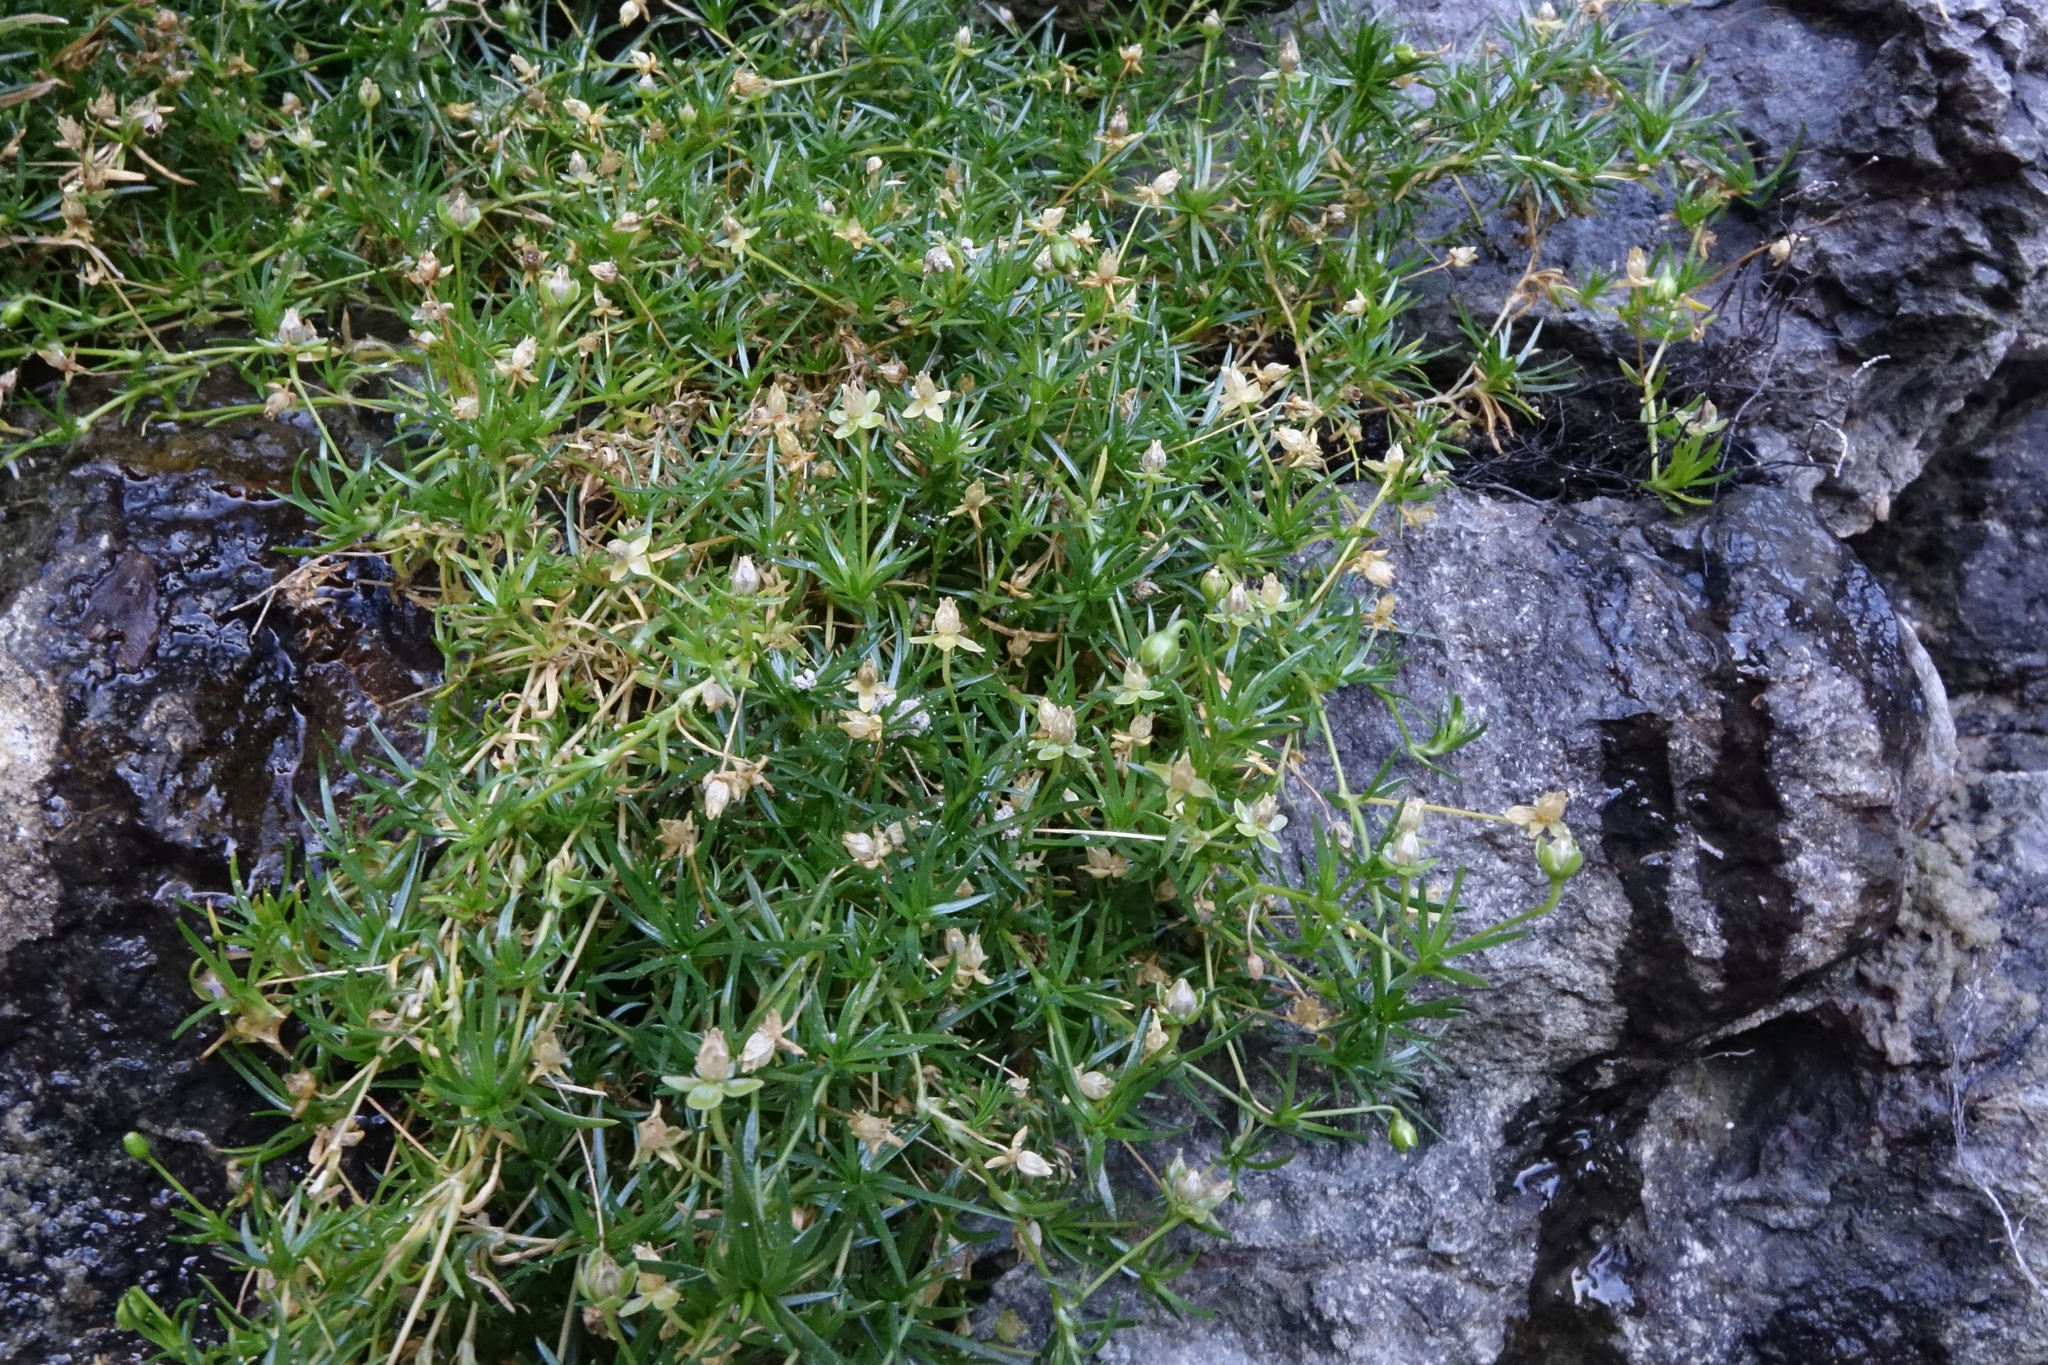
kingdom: Plantae
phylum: Tracheophyta
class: Magnoliopsida
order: Caryophyllales
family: Caryophyllaceae
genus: Sagina
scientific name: Sagina procumbens
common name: Procumbent pearlwort
